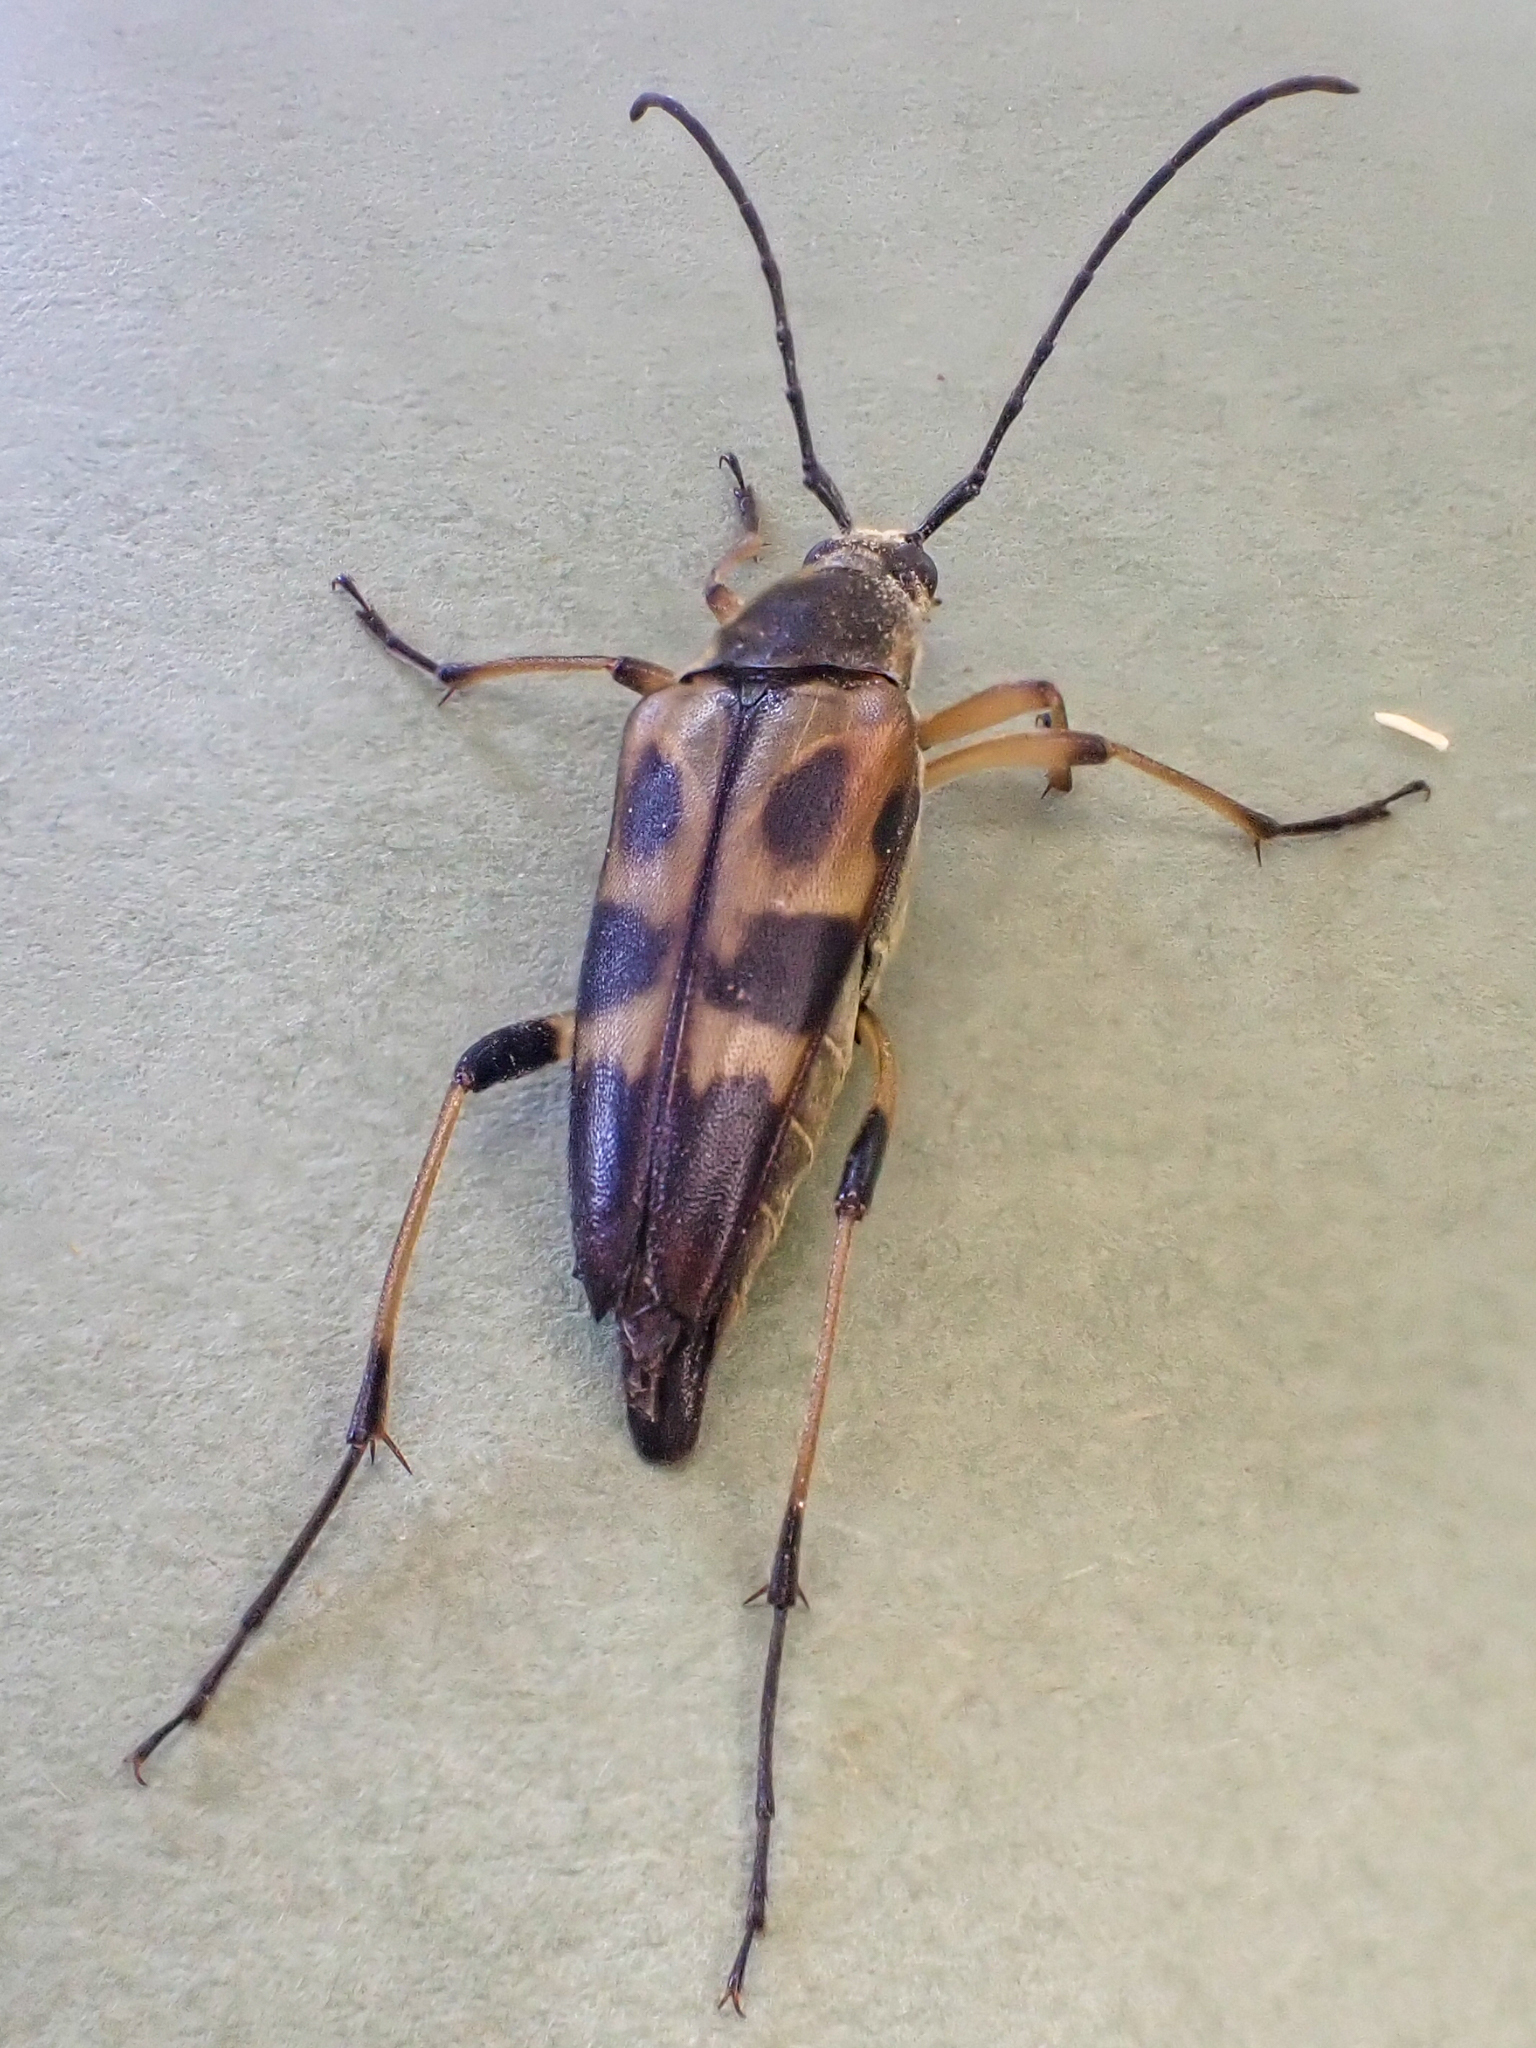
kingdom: Animalia
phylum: Arthropoda
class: Insecta
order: Coleoptera
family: Cerambycidae
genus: Etorofus
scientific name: Etorofus obliteratus
